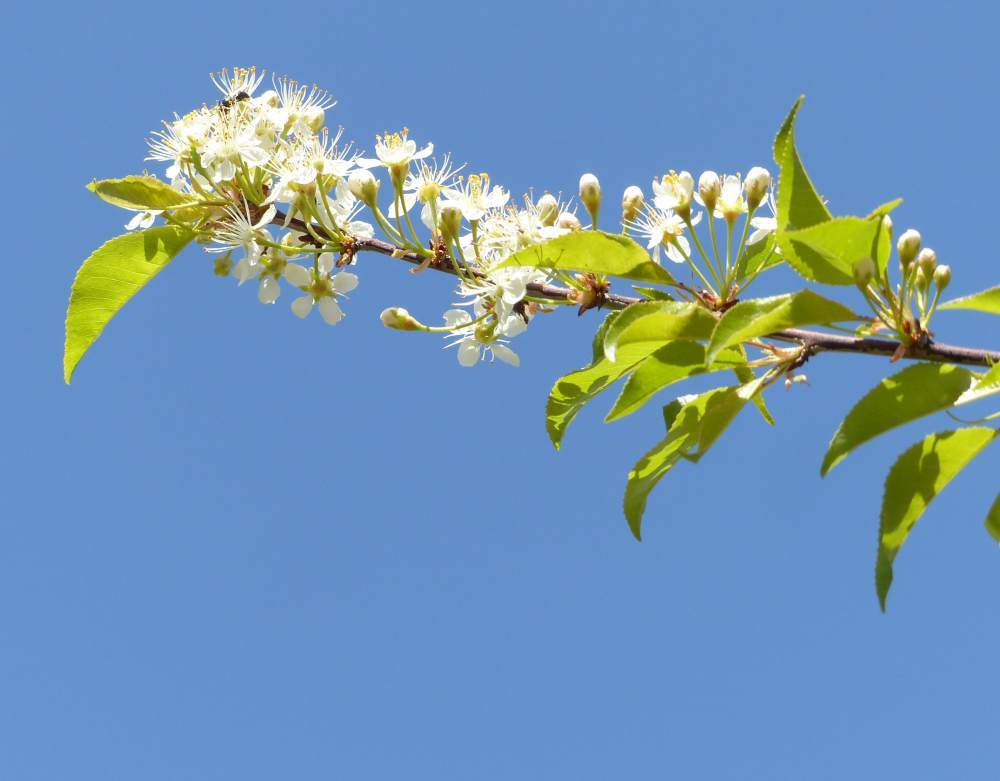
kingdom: Plantae
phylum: Tracheophyta
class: Magnoliopsida
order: Rosales
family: Rosaceae
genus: Prunus
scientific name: Prunus pensylvanica
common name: Pin cherry
